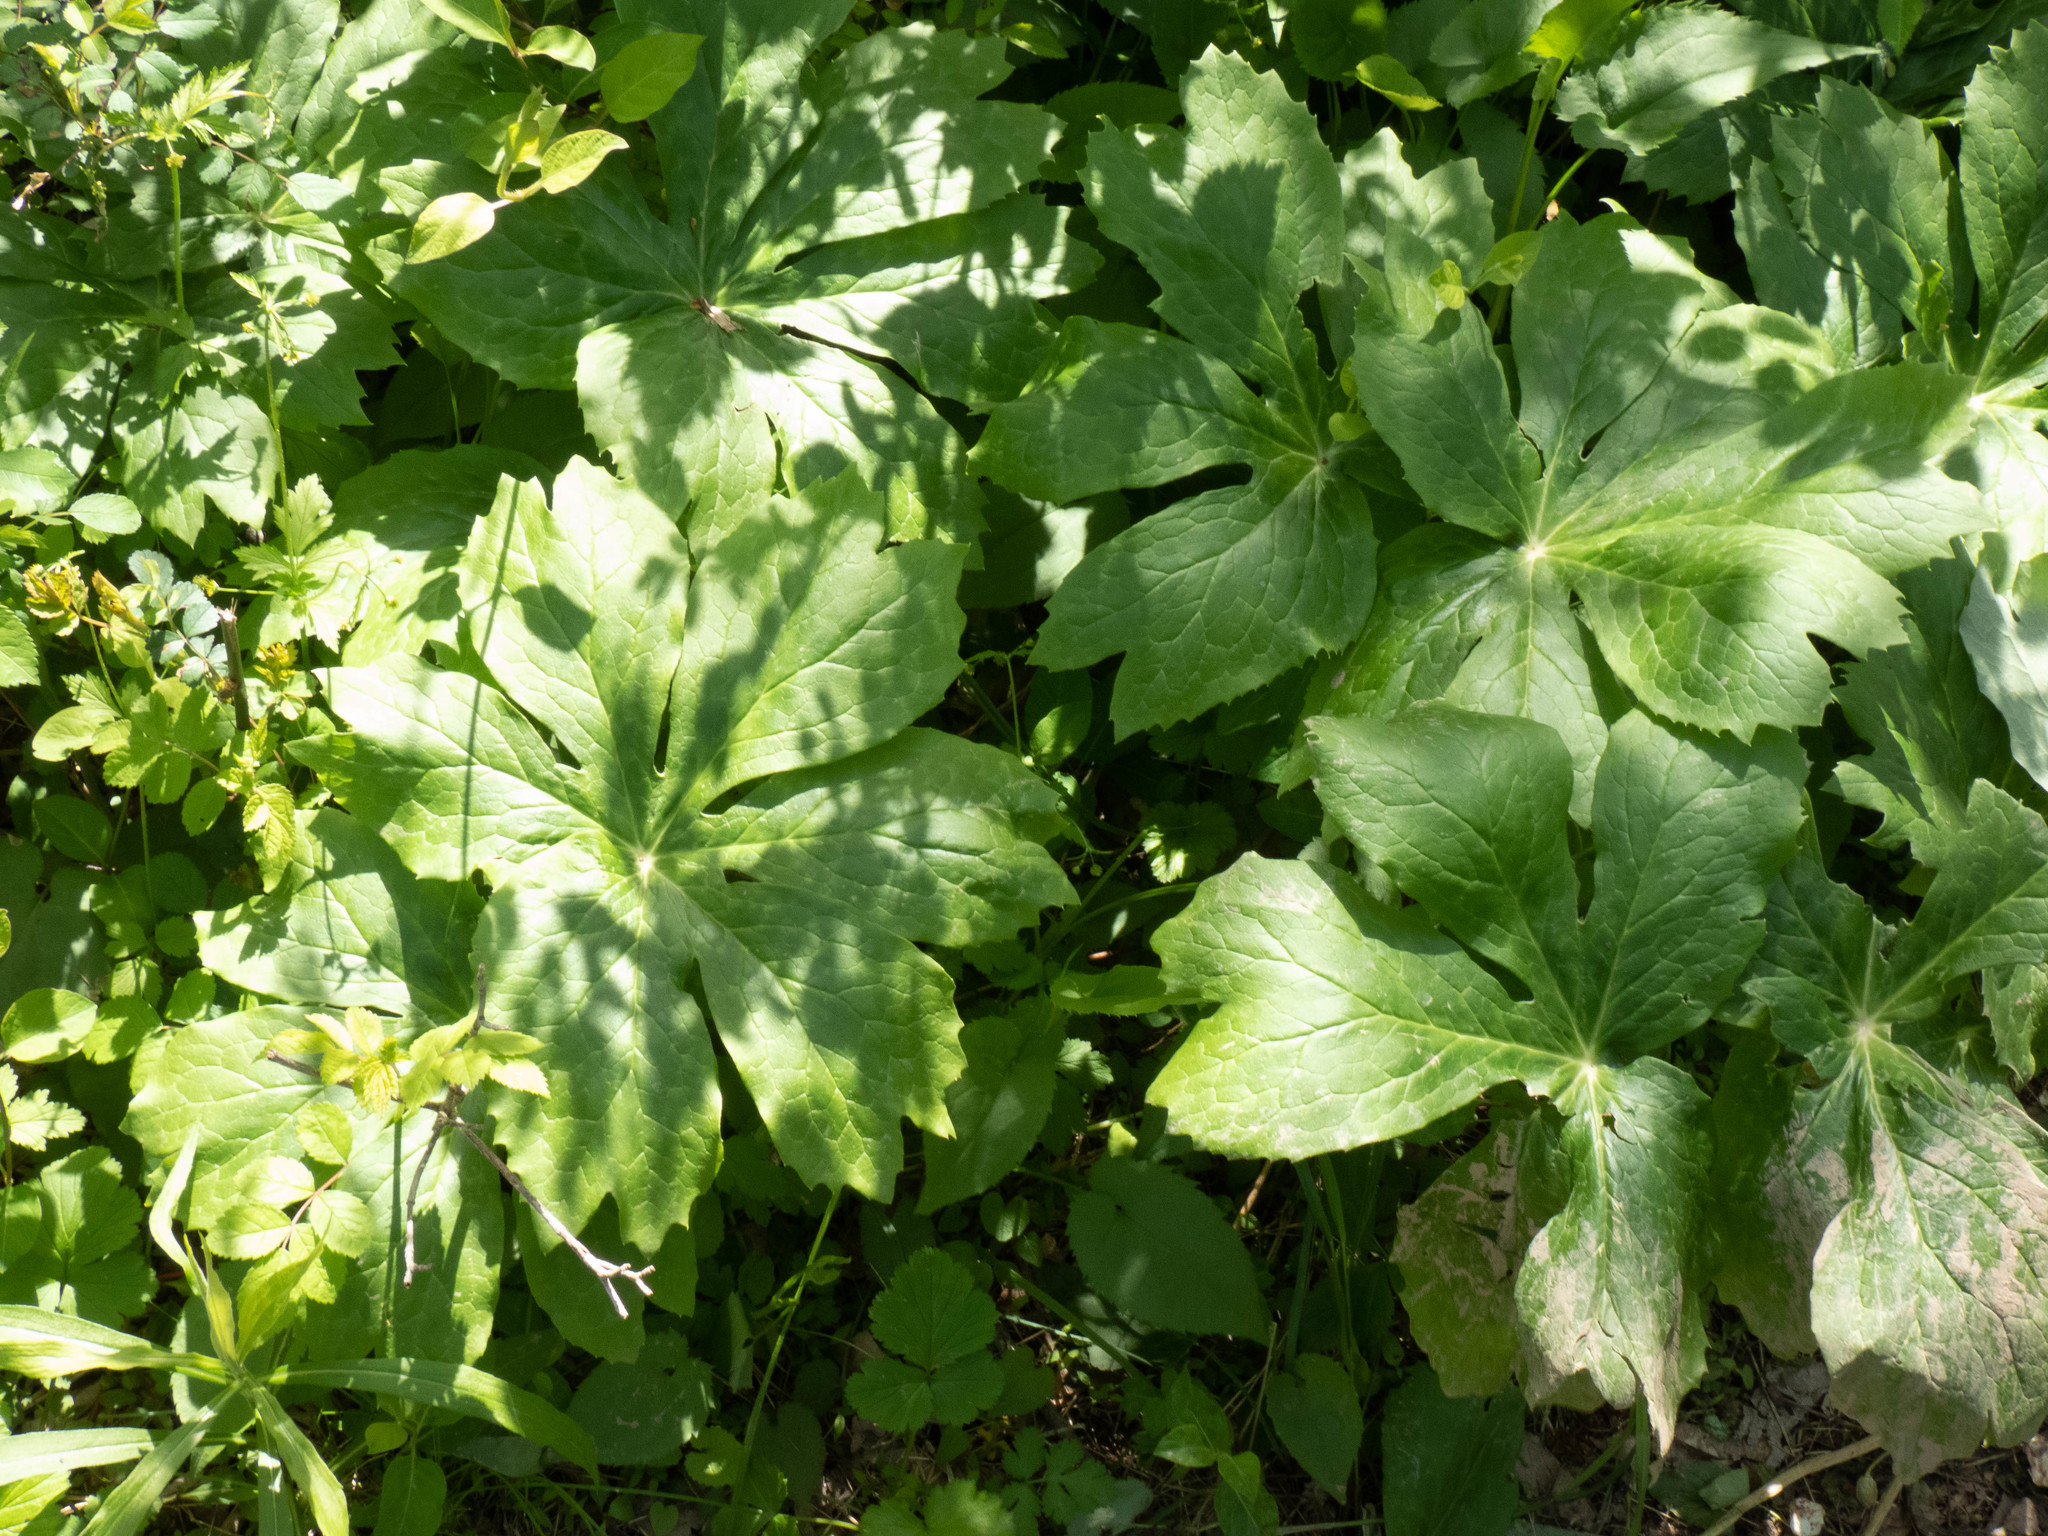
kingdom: Plantae
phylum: Tracheophyta
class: Magnoliopsida
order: Ranunculales
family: Berberidaceae
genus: Podophyllum
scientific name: Podophyllum peltatum
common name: Wild mandrake
